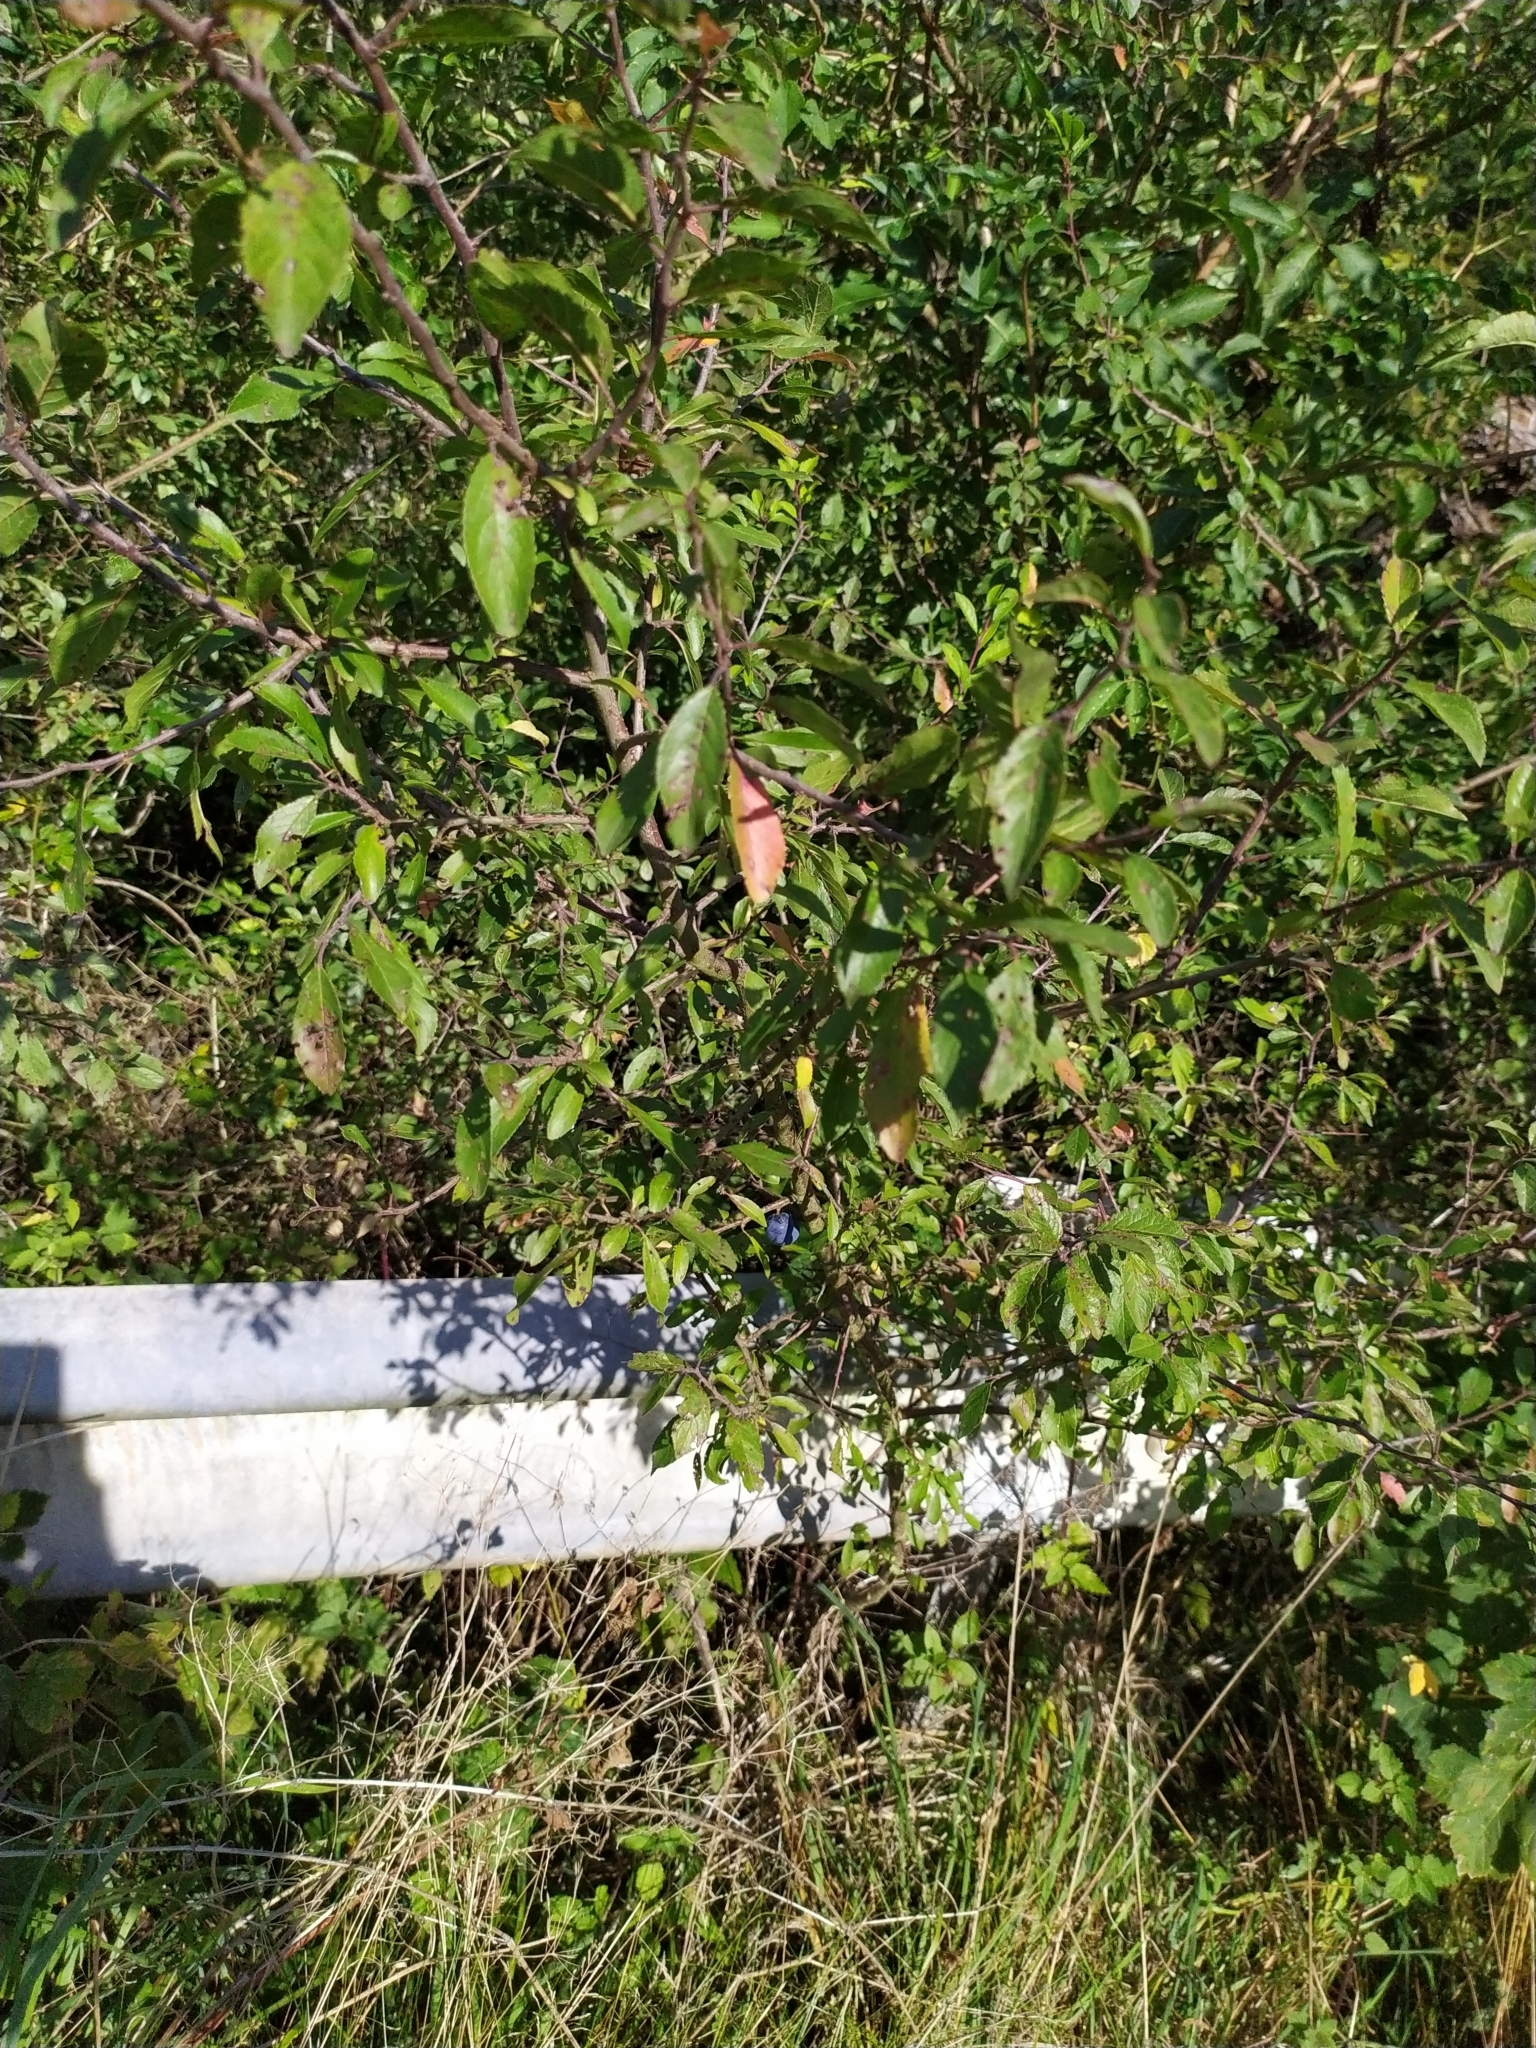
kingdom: Plantae
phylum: Tracheophyta
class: Magnoliopsida
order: Rosales
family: Rosaceae
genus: Prunus
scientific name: Prunus spinosa
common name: Blackthorn
